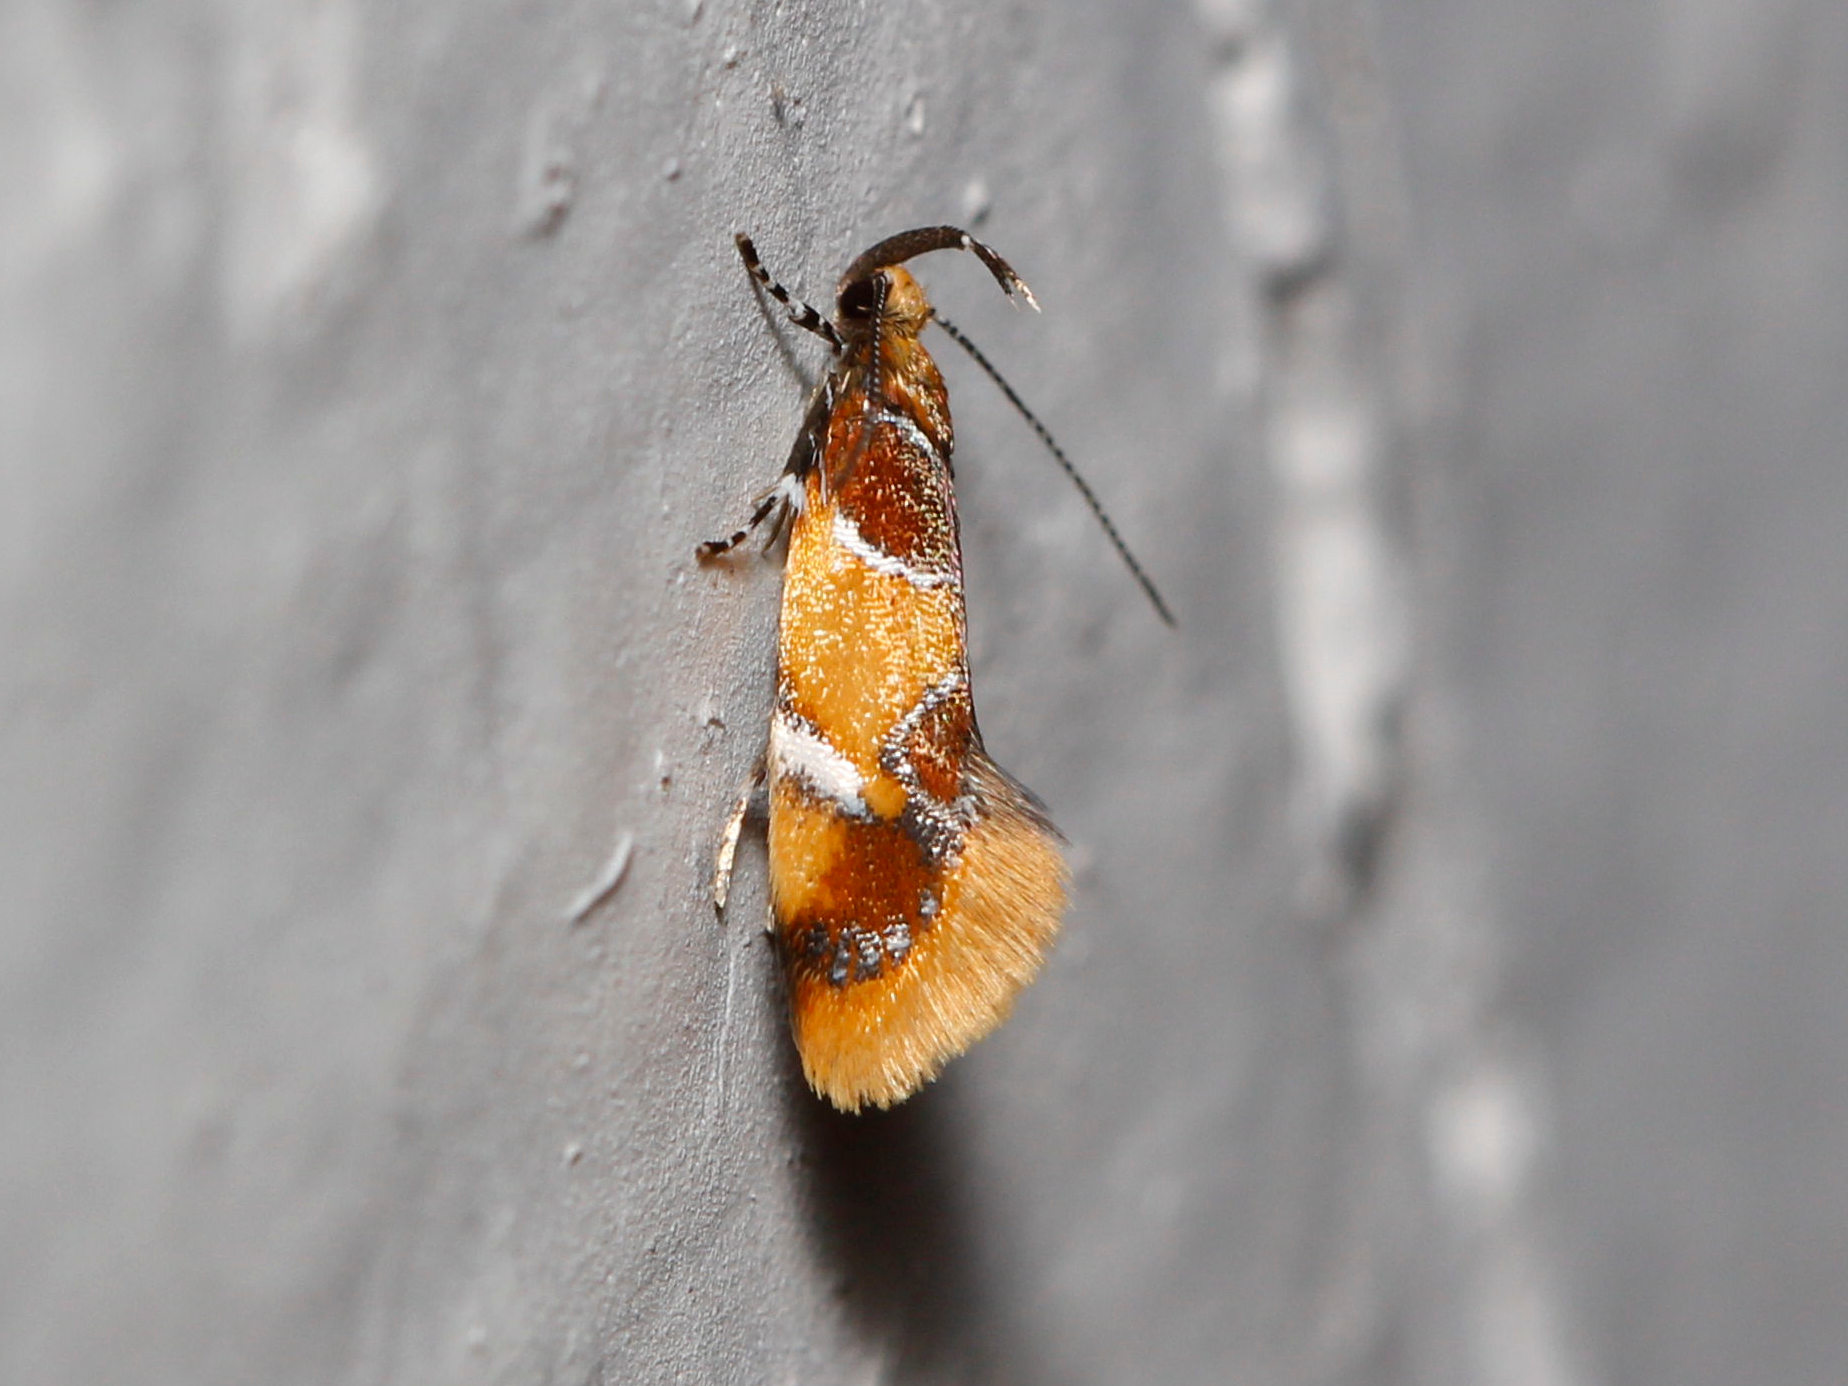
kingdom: Animalia
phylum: Arthropoda
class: Insecta
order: Lepidoptera
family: Oecophoridae
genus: Callima
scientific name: Callima argenticinctella
